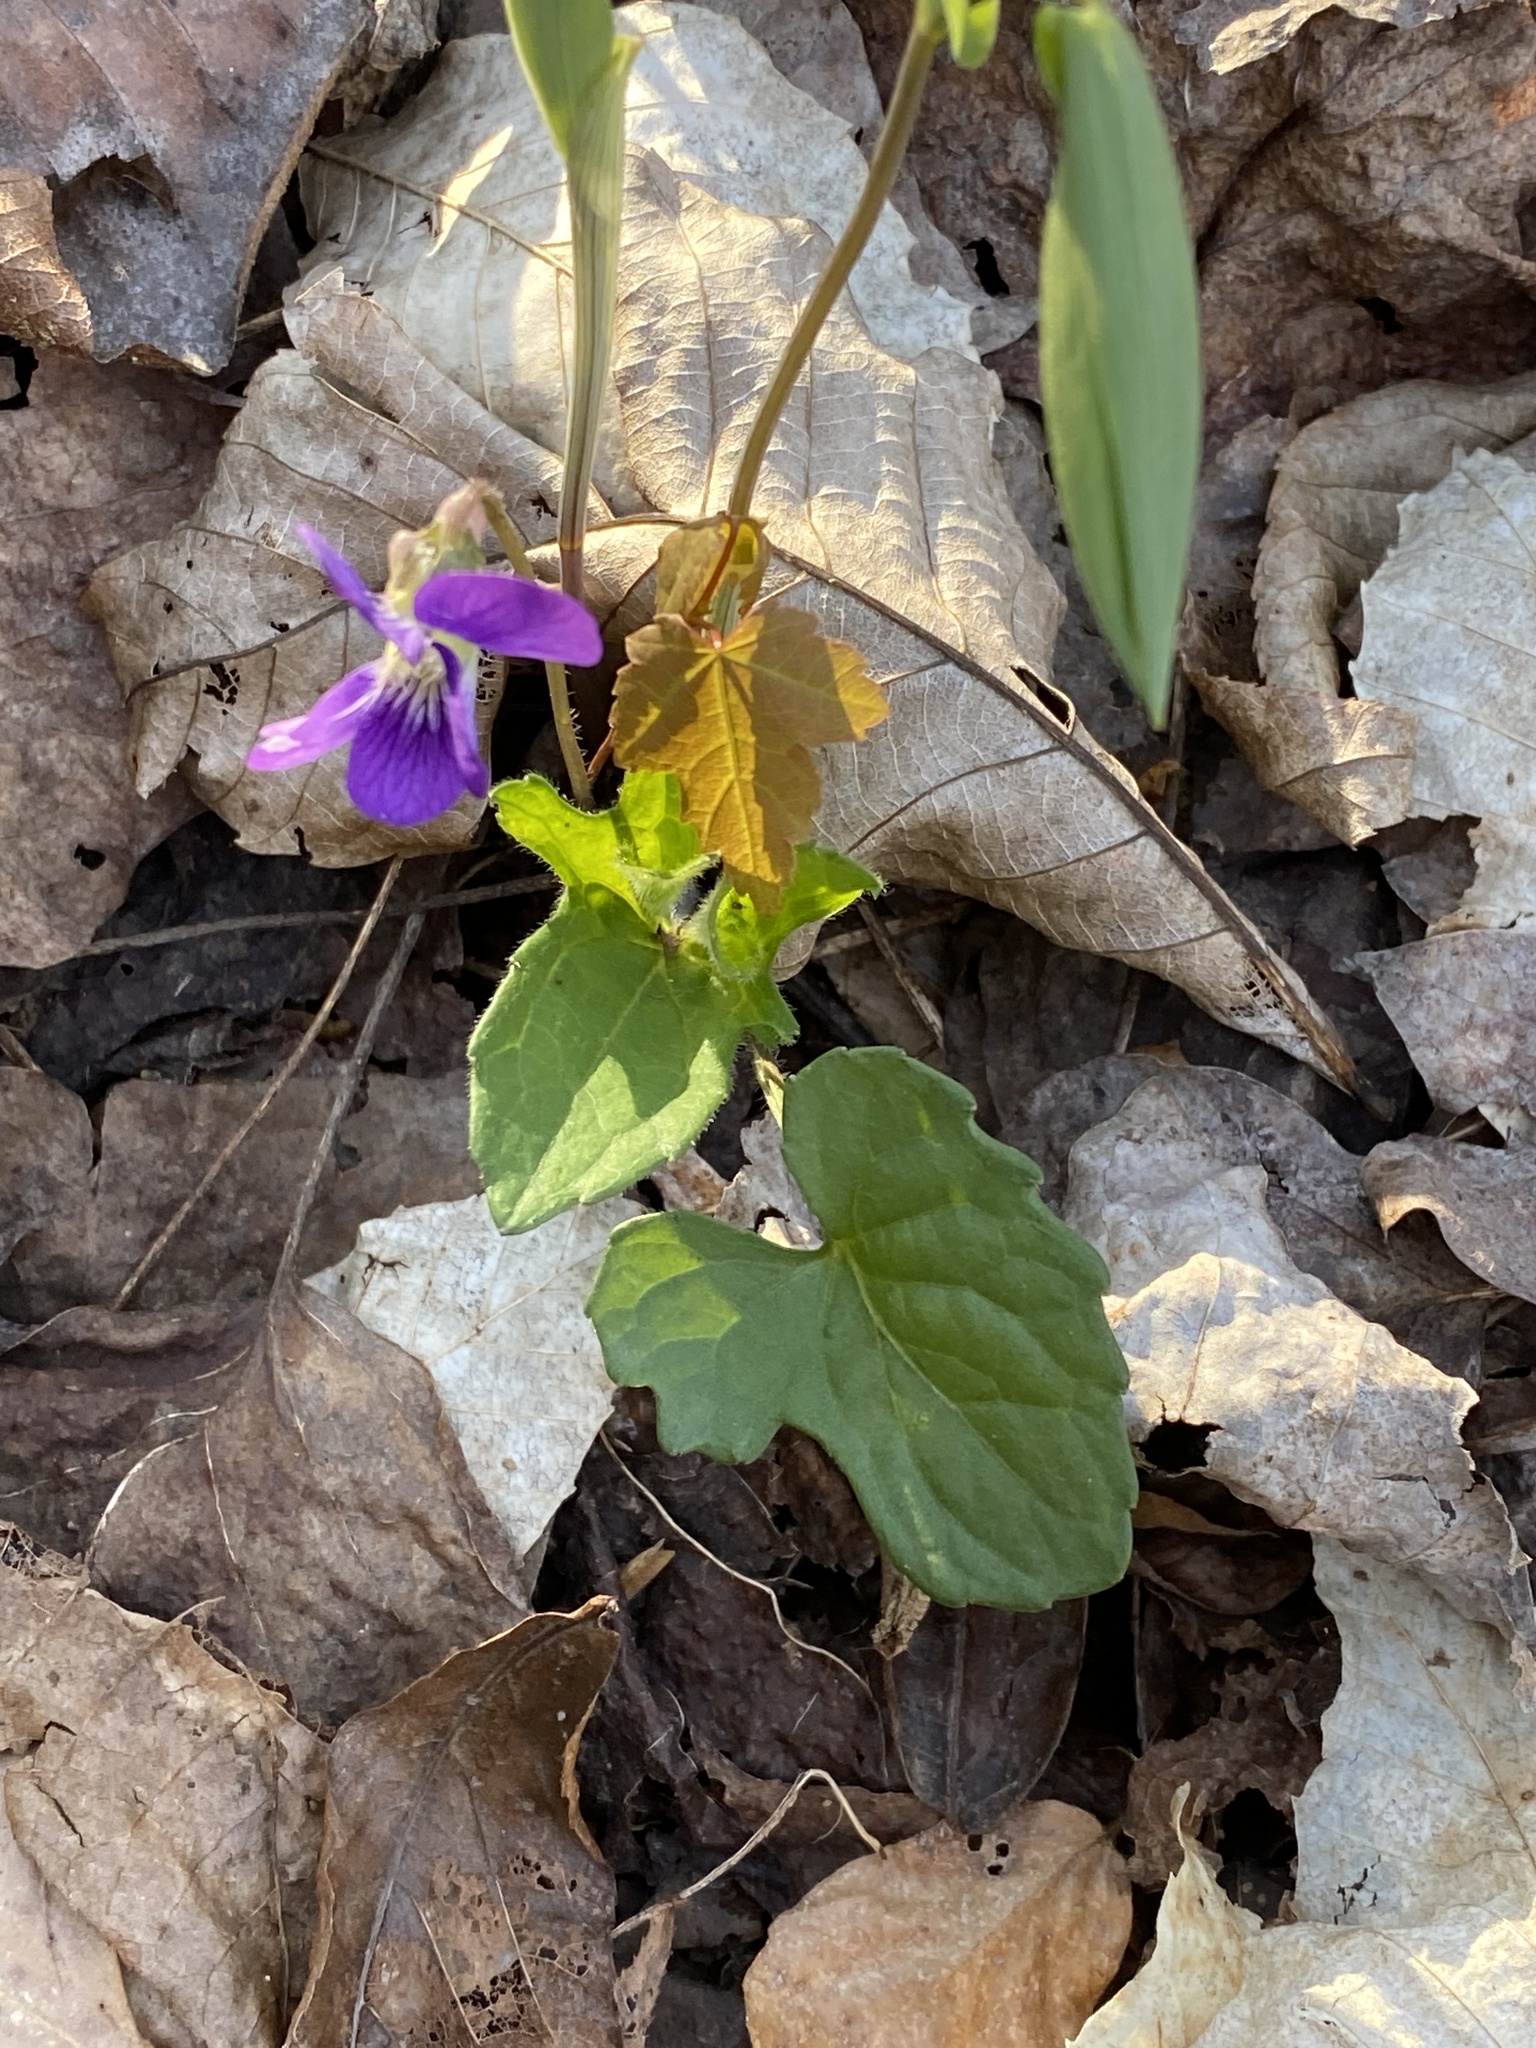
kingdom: Plantae
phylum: Tracheophyta
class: Magnoliopsida
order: Malpighiales
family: Violaceae
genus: Viola
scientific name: Viola palmata
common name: Early blue violet
